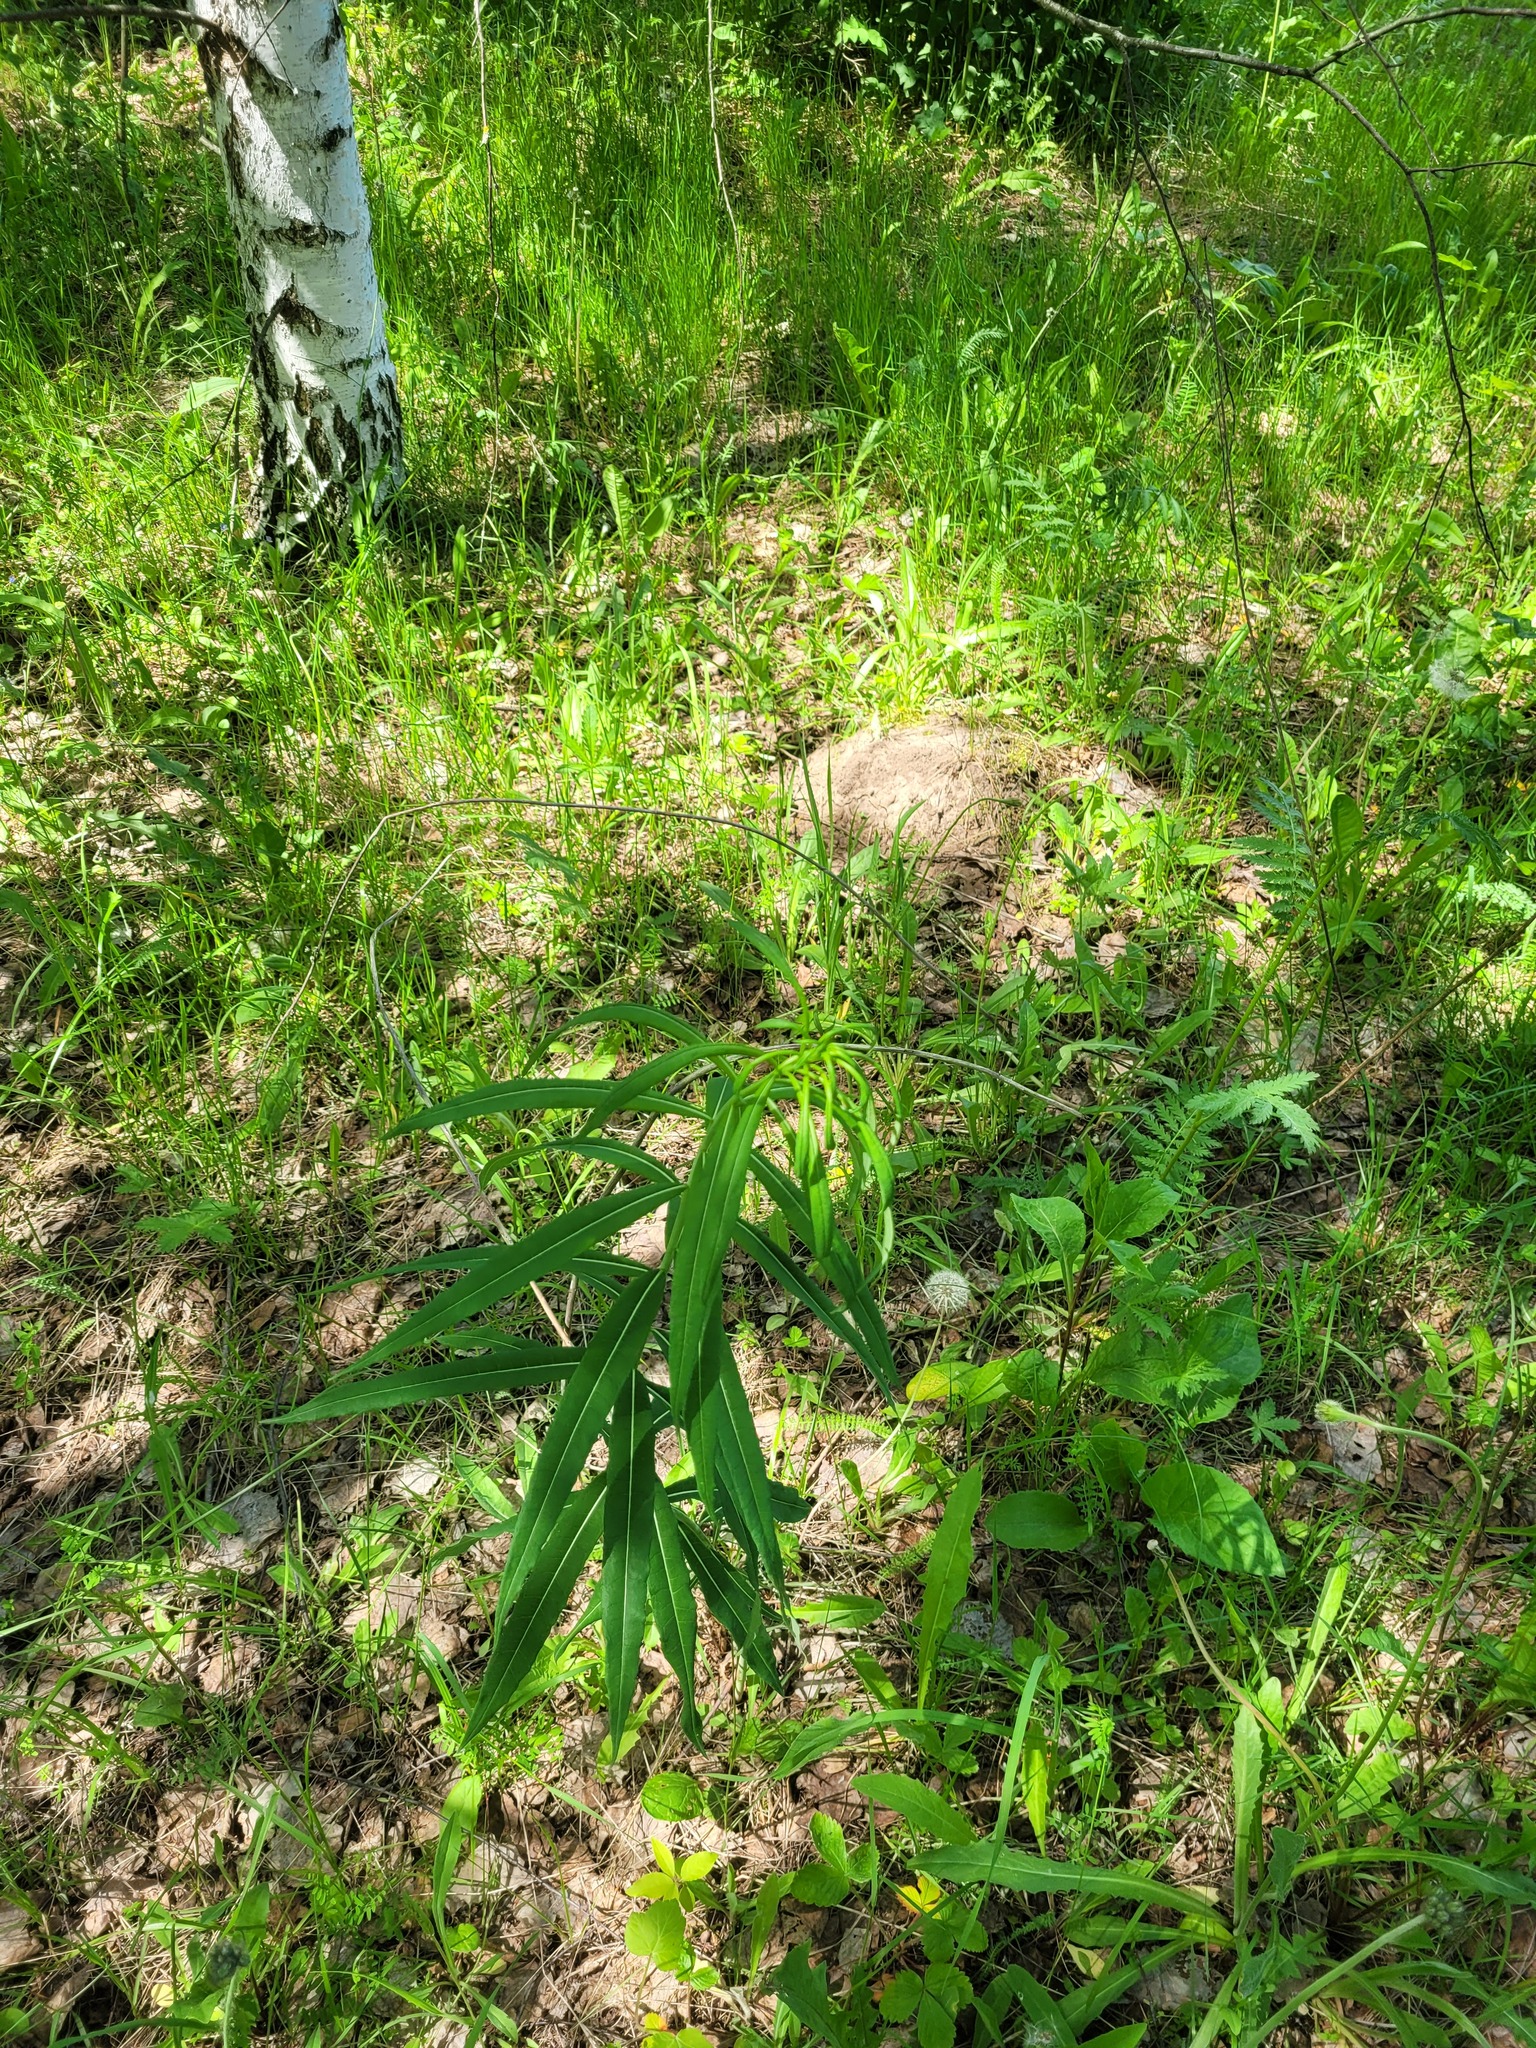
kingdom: Plantae
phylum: Tracheophyta
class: Magnoliopsida
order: Myrtales
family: Onagraceae
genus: Chamaenerion
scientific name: Chamaenerion angustifolium
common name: Fireweed
